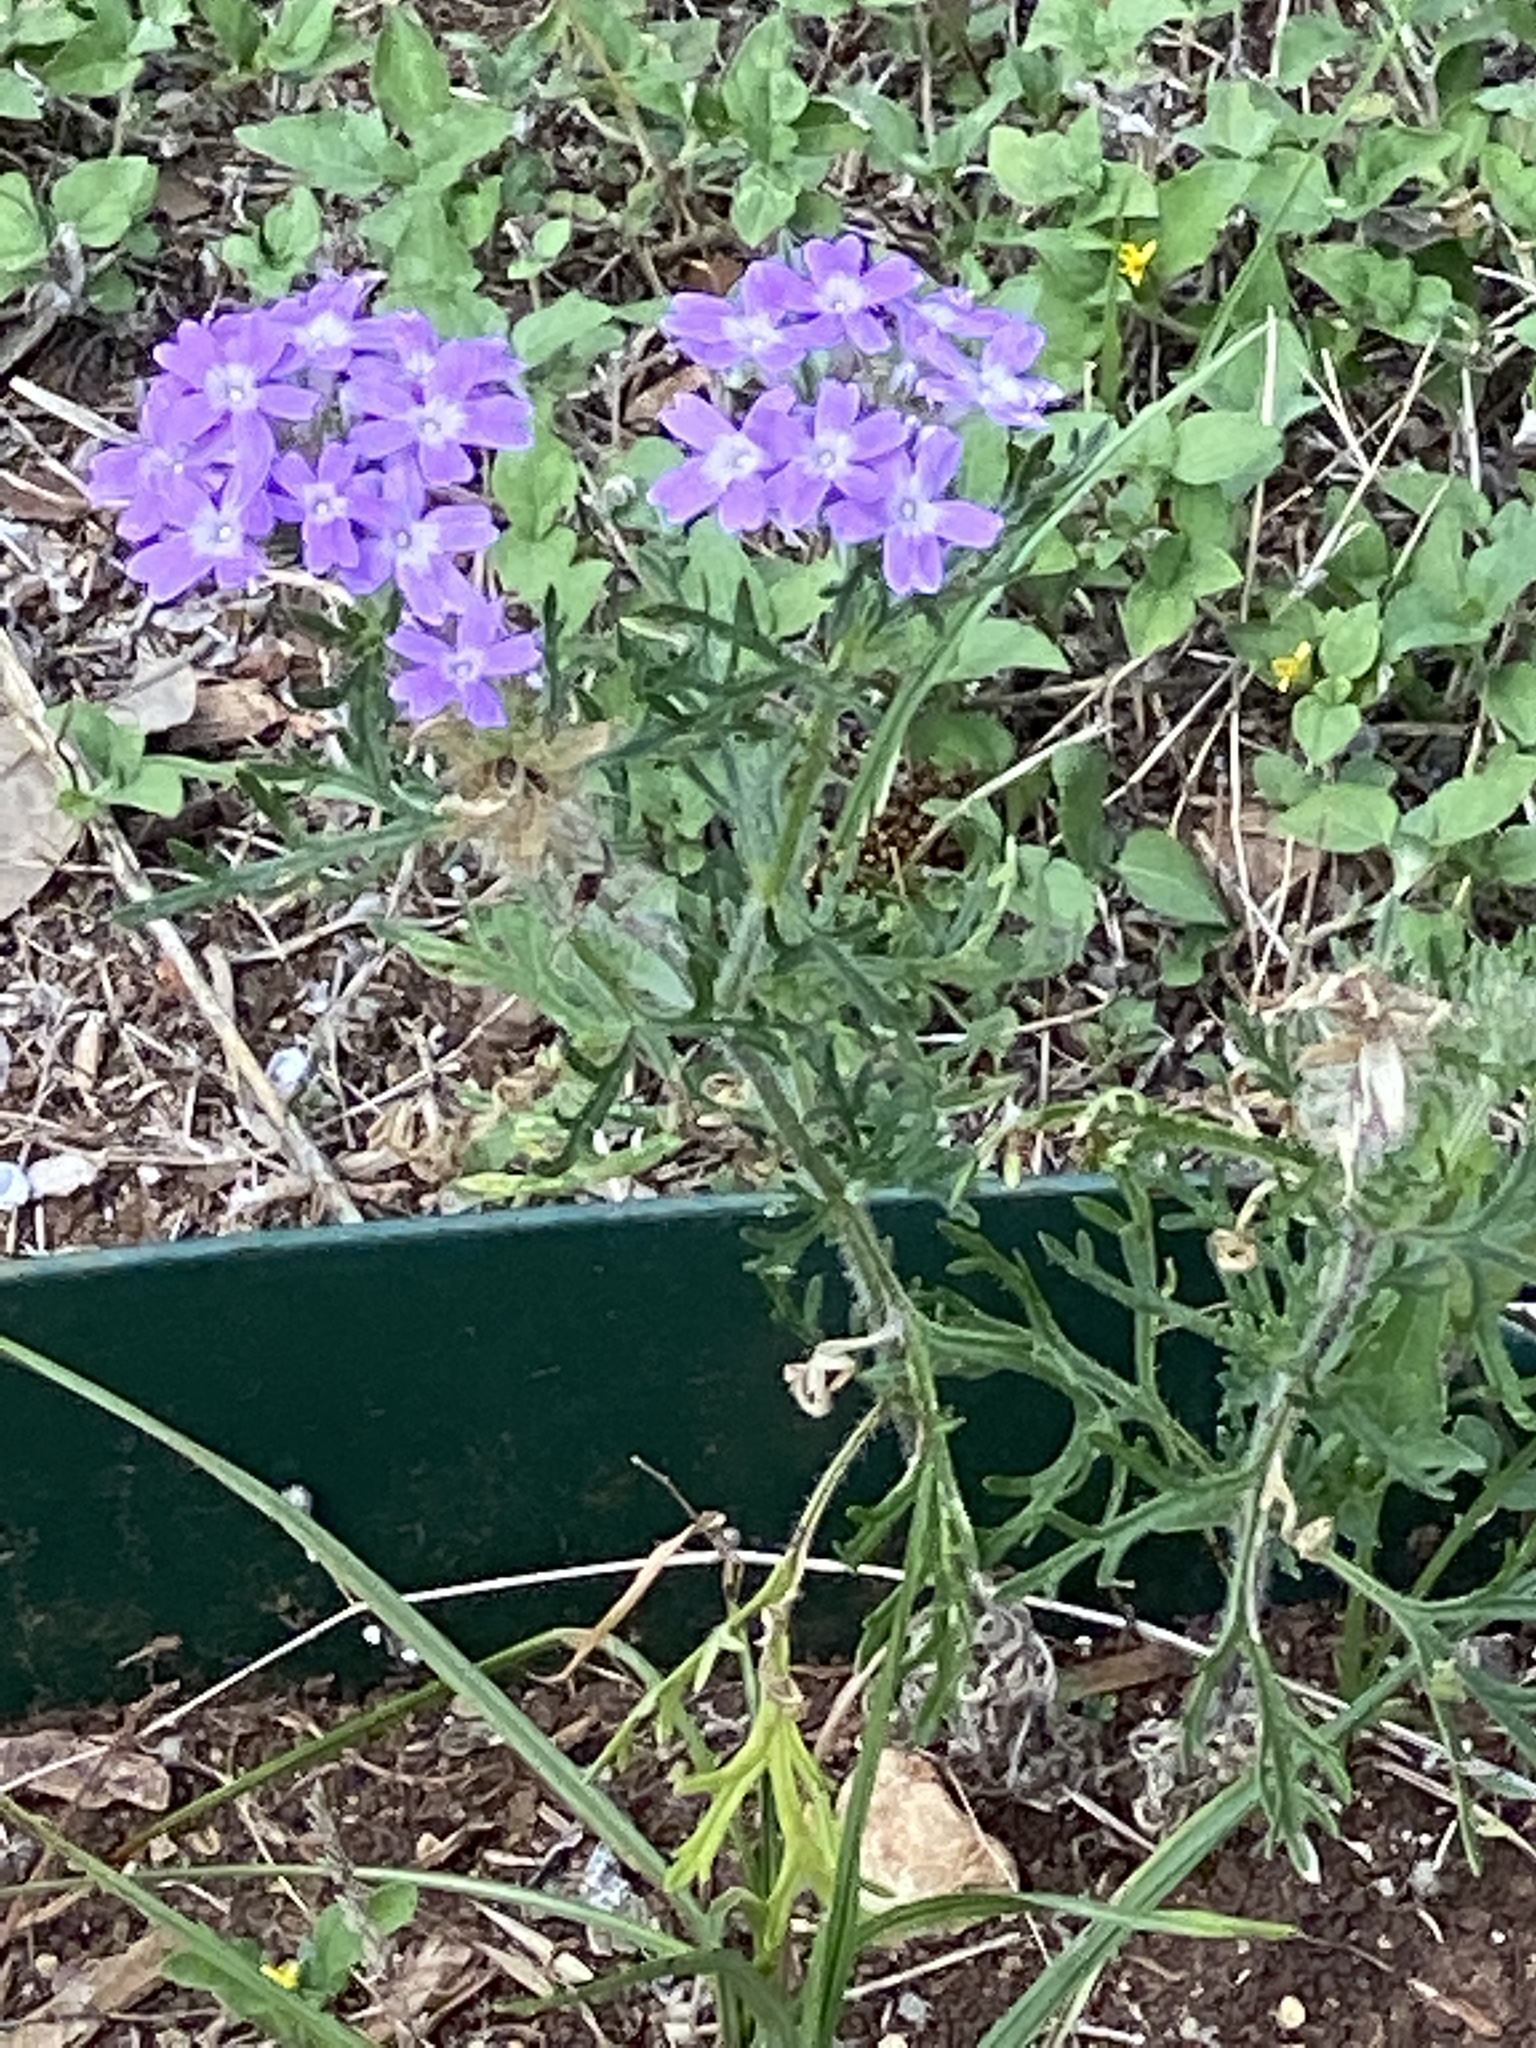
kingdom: Plantae
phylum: Tracheophyta
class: Magnoliopsida
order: Lamiales
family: Verbenaceae
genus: Verbena
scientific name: Verbena bipinnatifida
